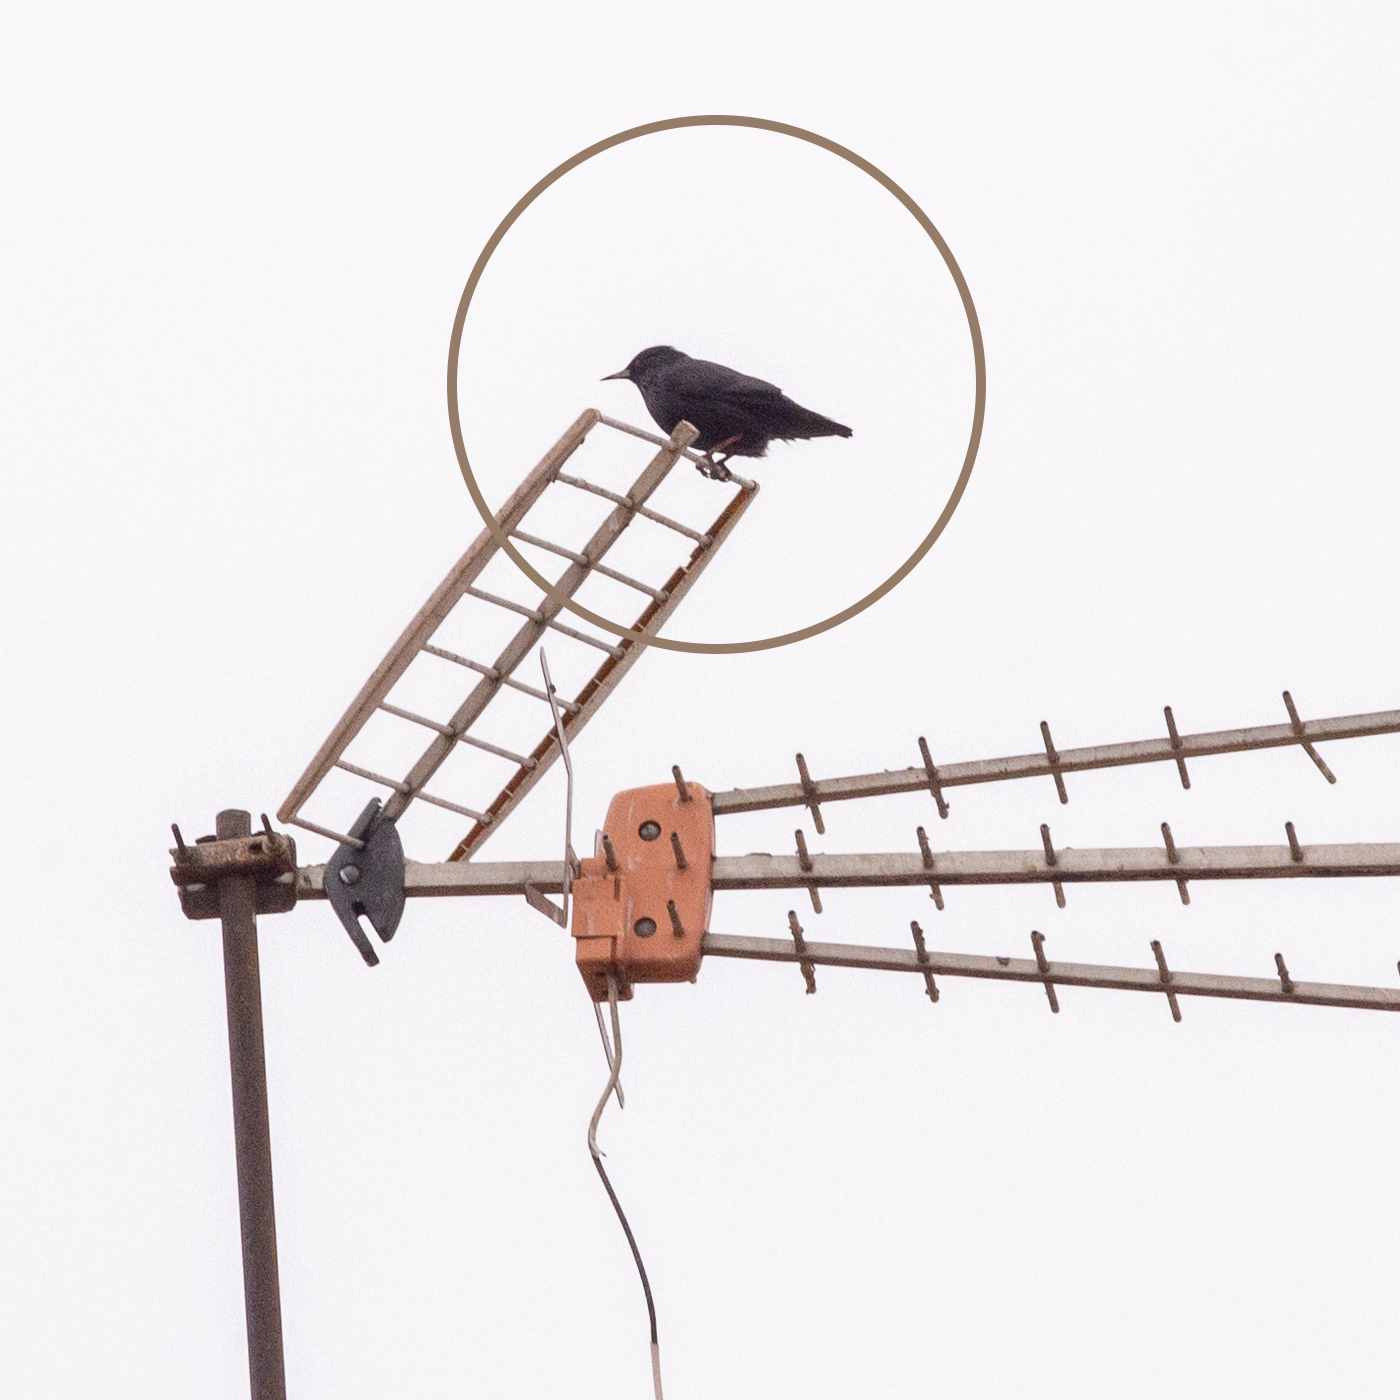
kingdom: Animalia
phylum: Chordata
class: Aves
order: Passeriformes
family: Sturnidae
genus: Sturnus
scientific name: Sturnus unicolor
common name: Spotless starling
